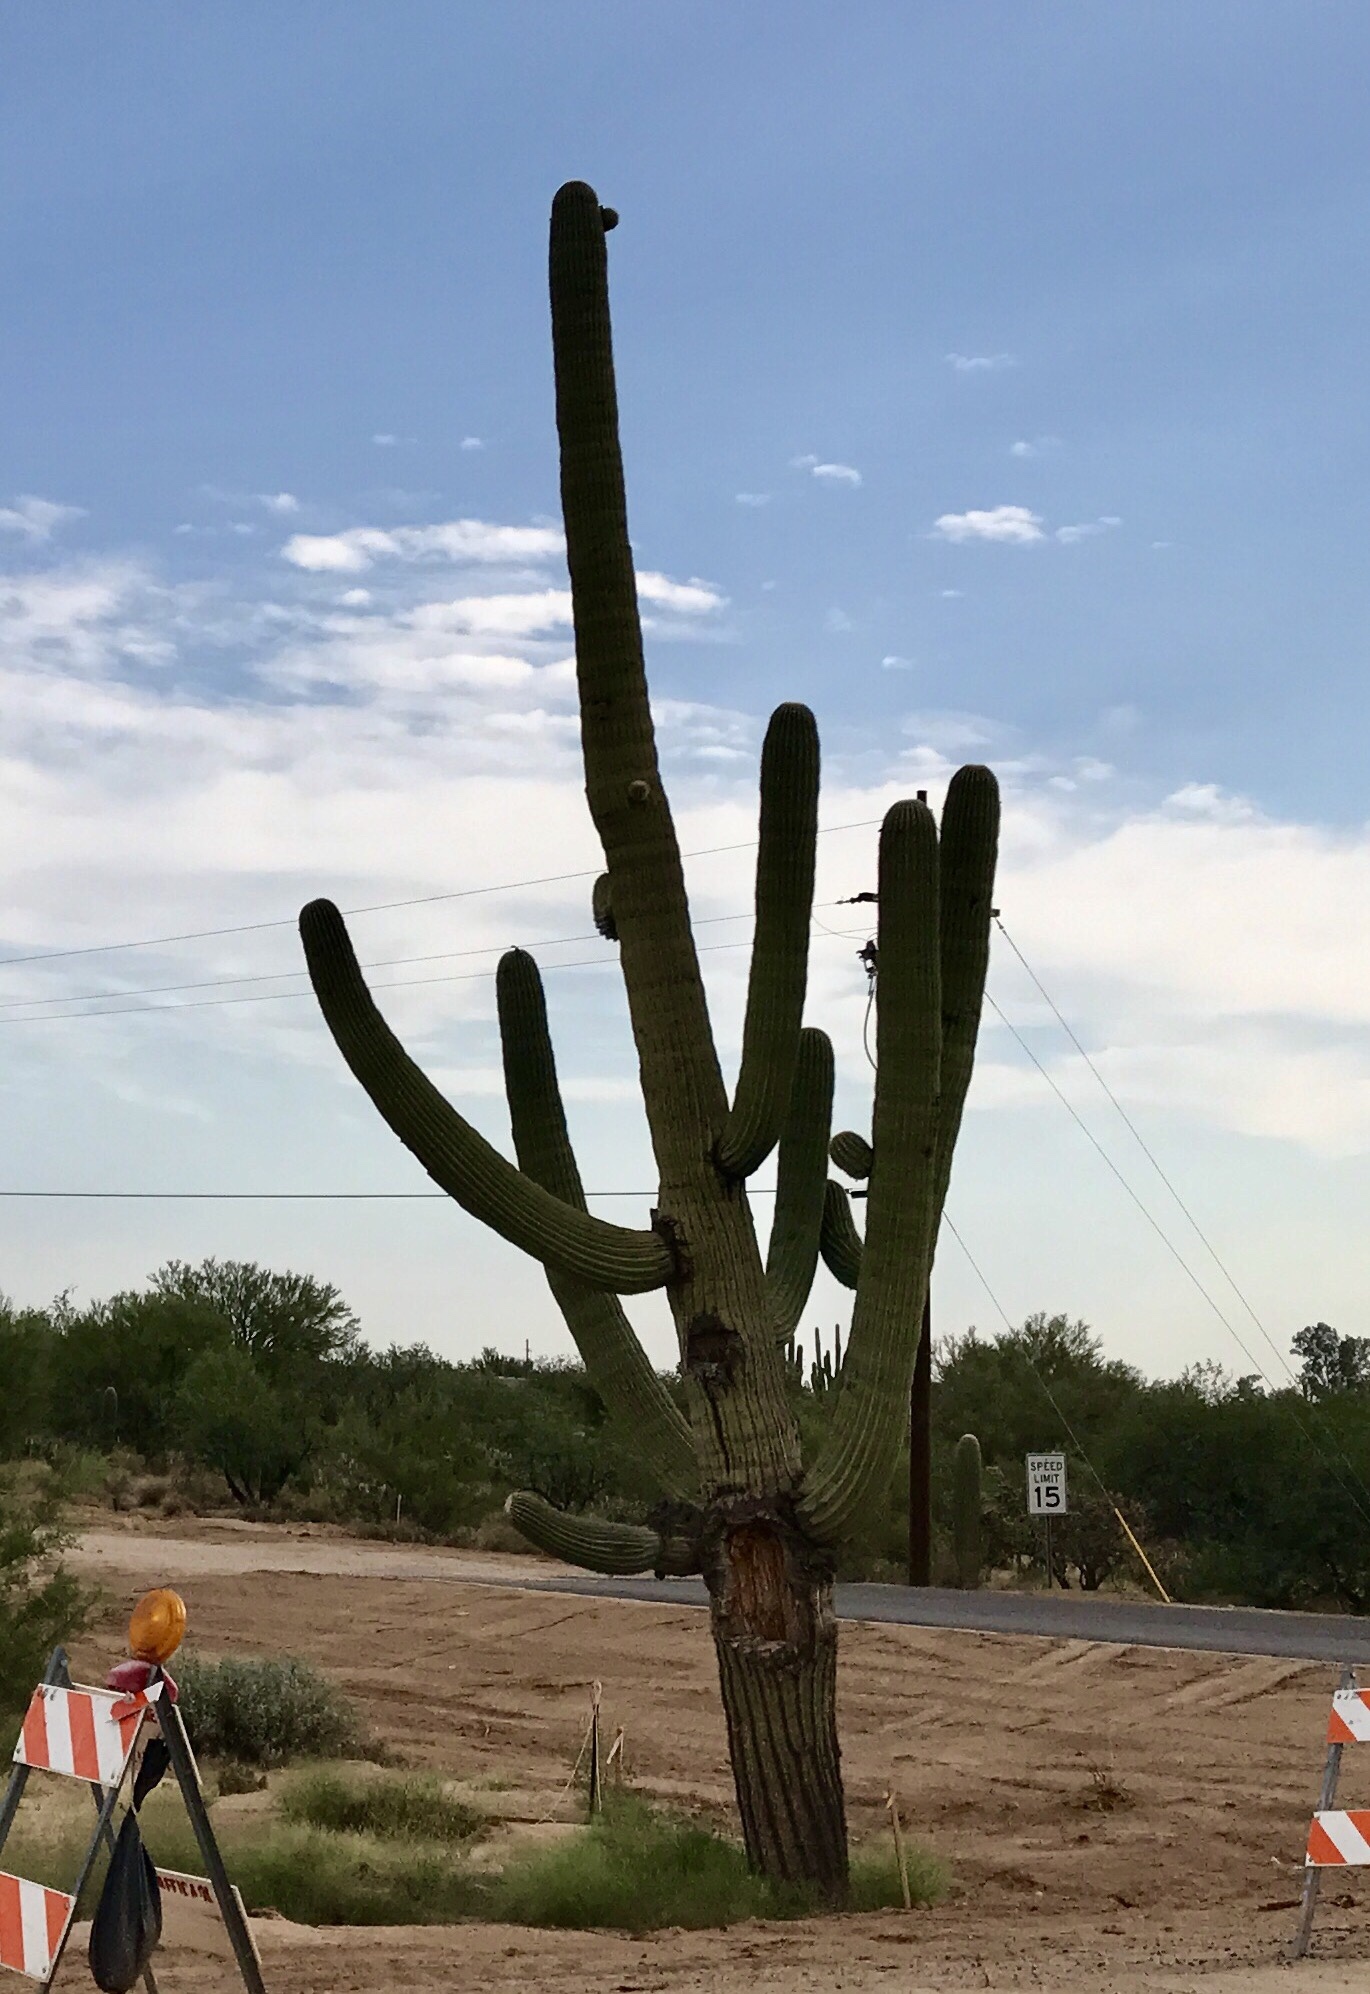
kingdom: Plantae
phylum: Tracheophyta
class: Magnoliopsida
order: Caryophyllales
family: Cactaceae
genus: Carnegiea
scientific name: Carnegiea gigantea
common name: Saguaro
